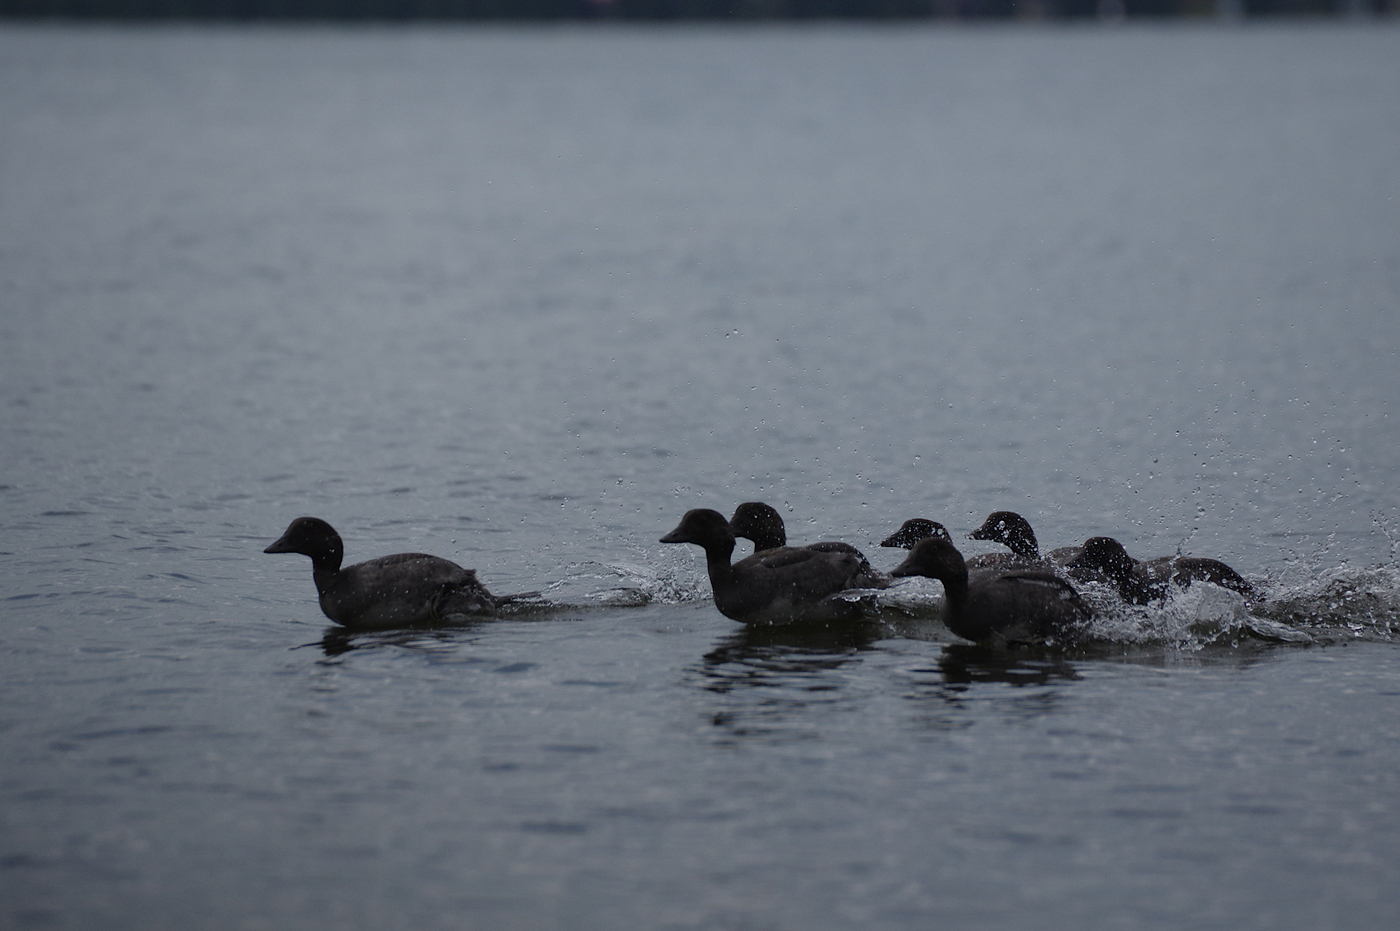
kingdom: Animalia
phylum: Chordata
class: Aves
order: Anseriformes
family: Anatidae
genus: Bucephala
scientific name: Bucephala clangula
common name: Common goldeneye
